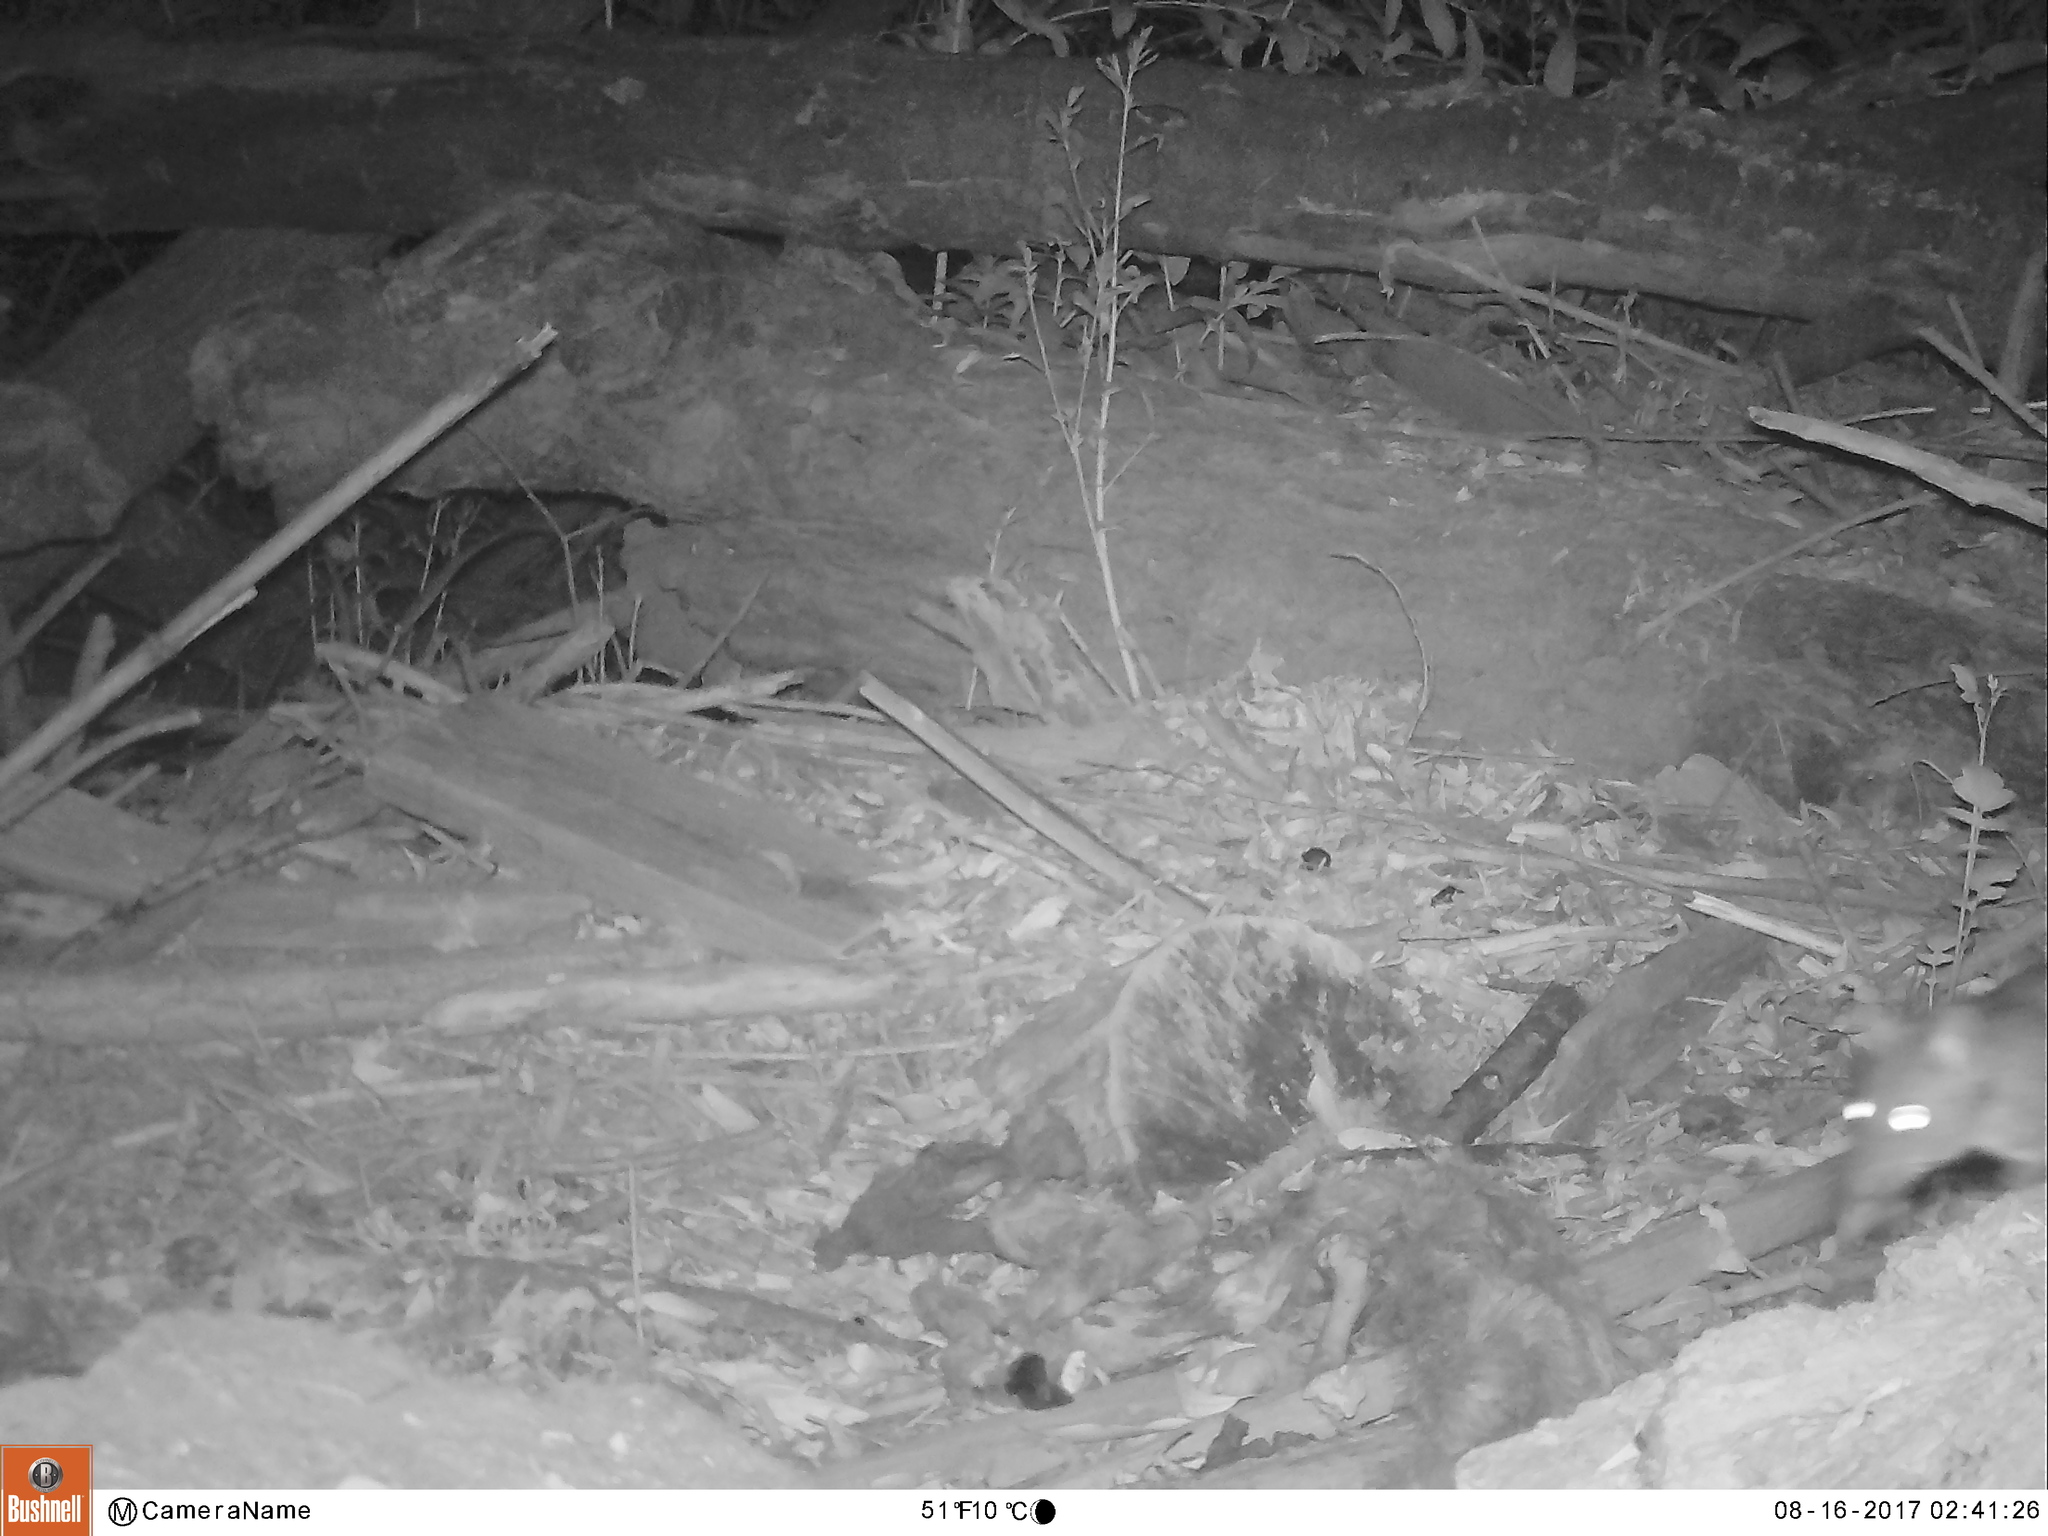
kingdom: Animalia
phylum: Chordata
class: Mammalia
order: Rodentia
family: Cricetidae
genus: Neotoma
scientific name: Neotoma fuscipes
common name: Dusky-footed woodrat
